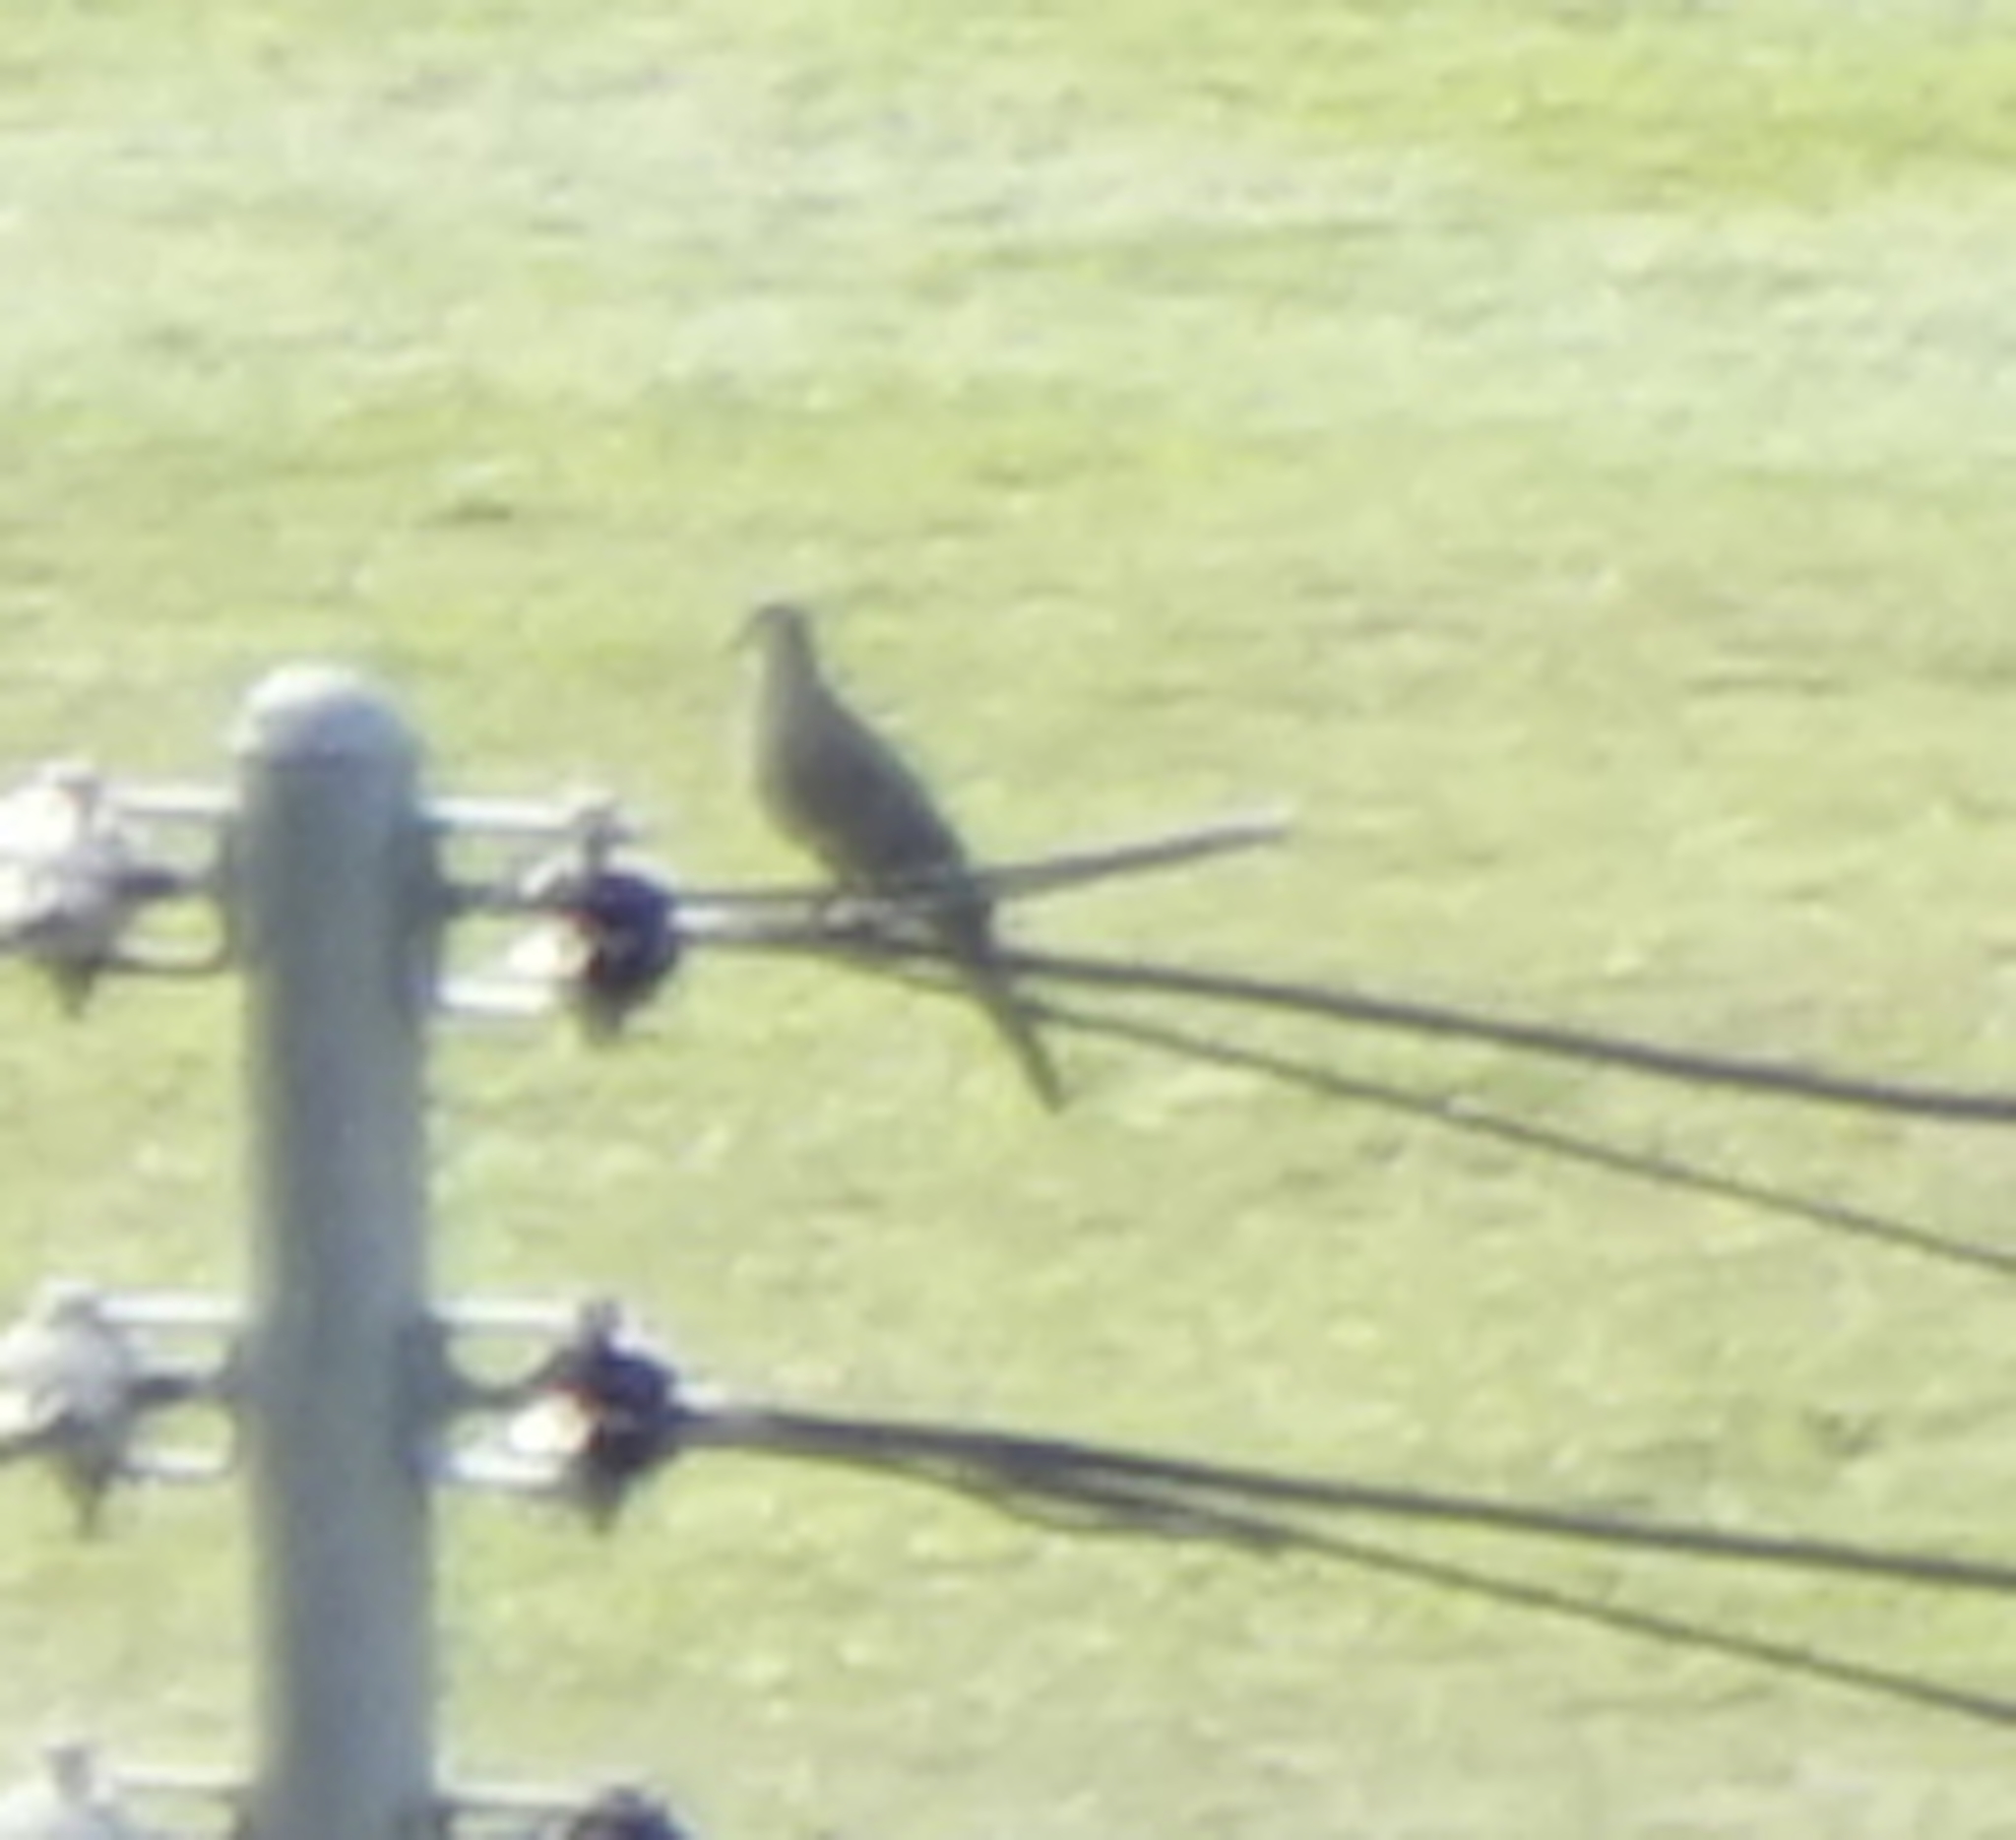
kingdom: Animalia
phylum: Chordata
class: Aves
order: Columbiformes
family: Columbidae
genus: Spilopelia
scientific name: Spilopelia chinensis
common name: Spotted dove
